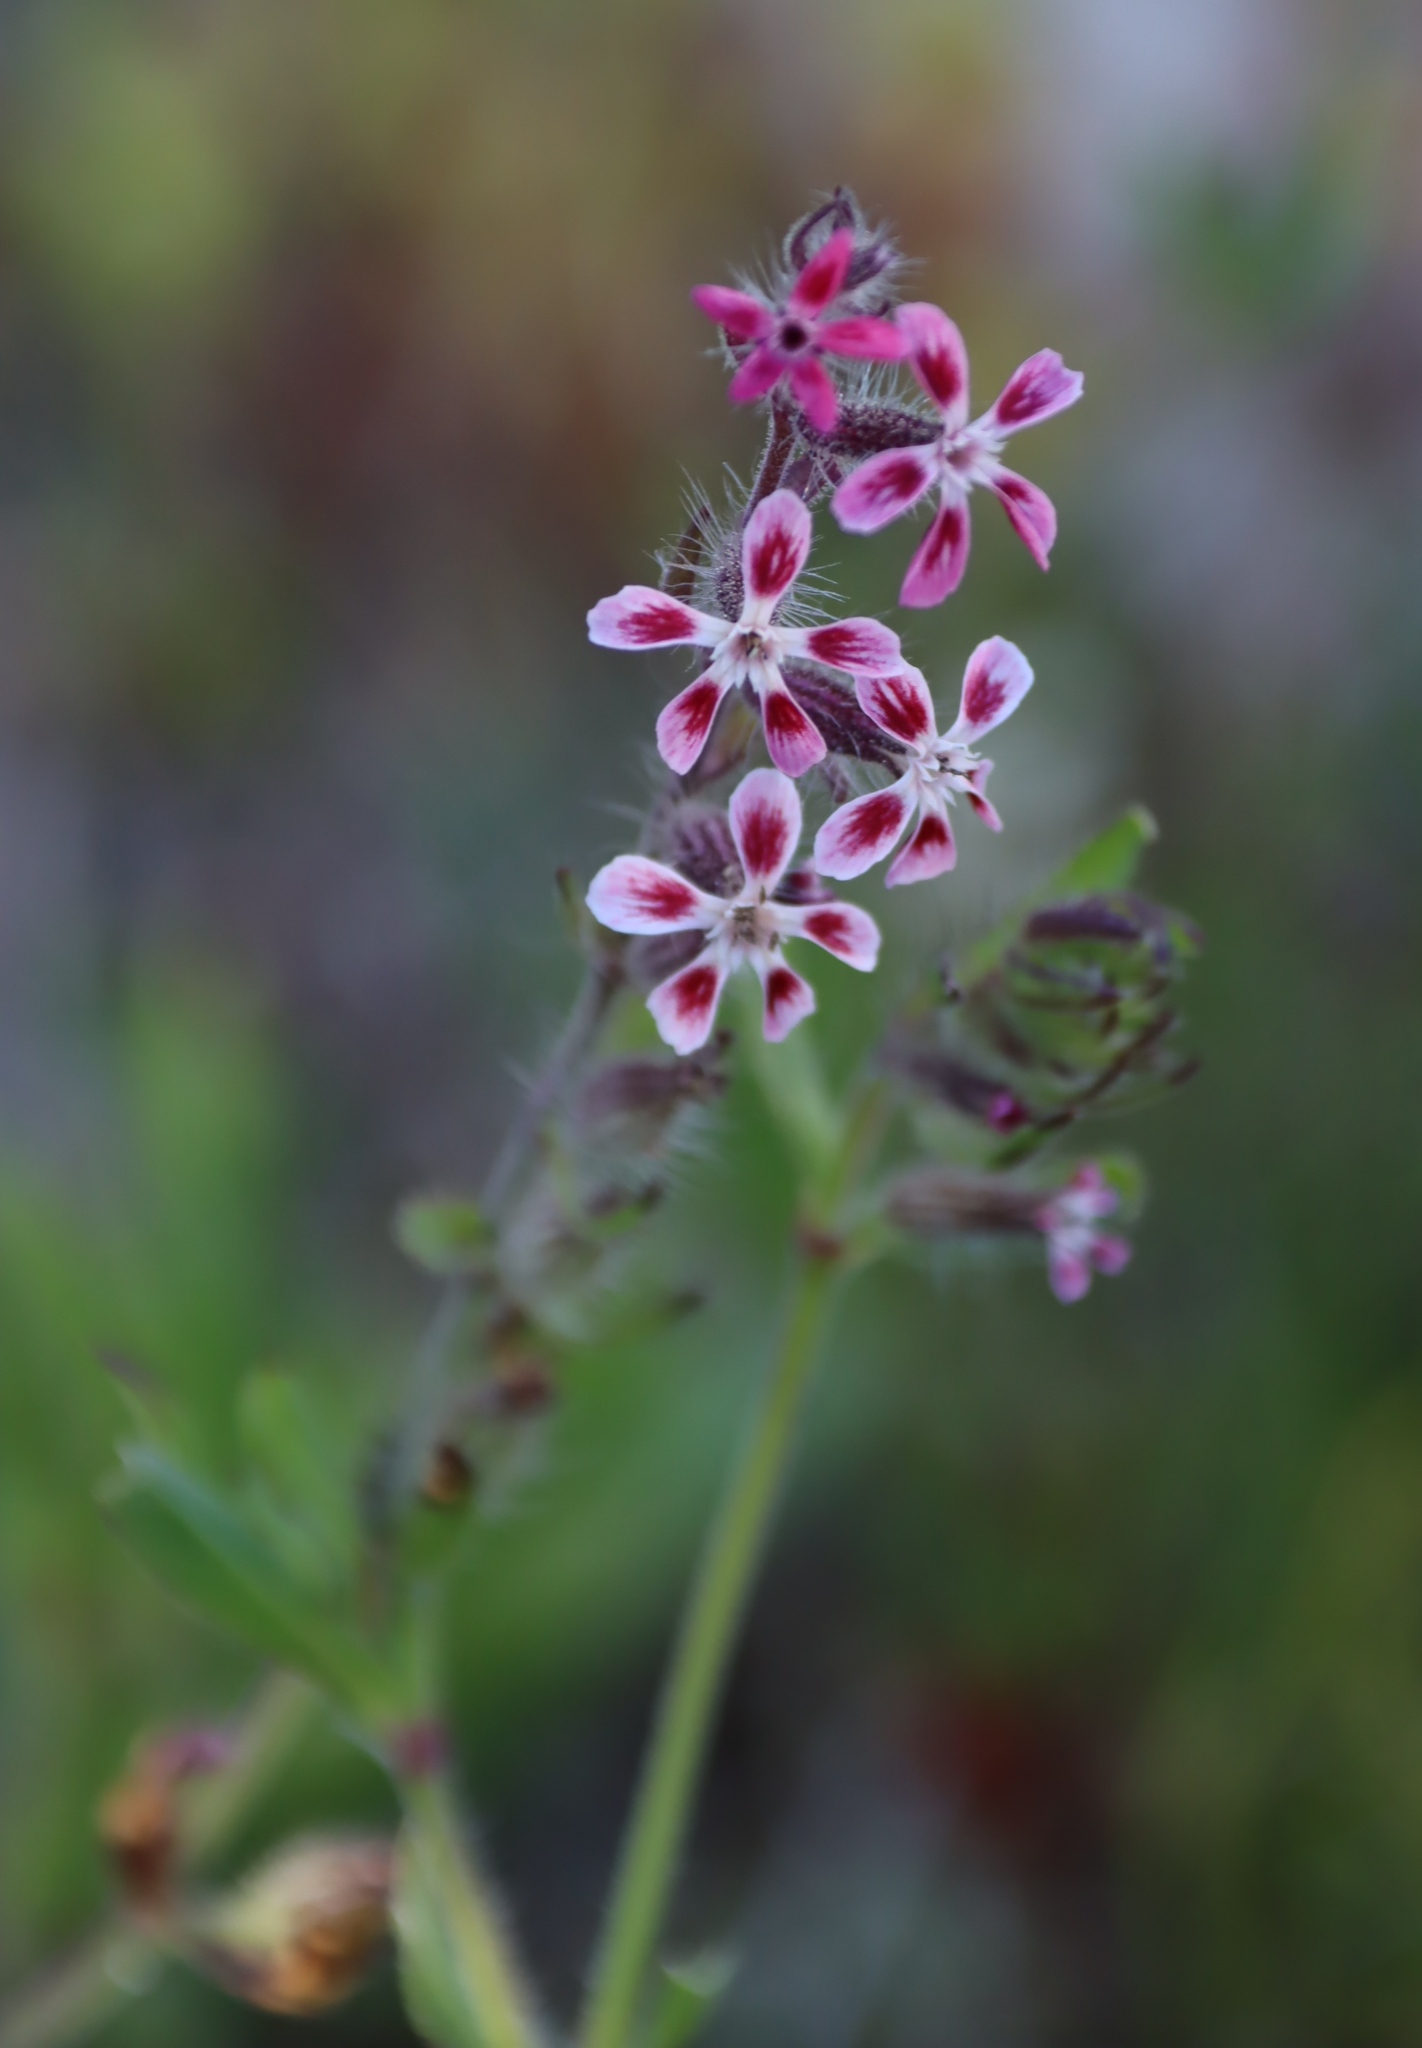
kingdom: Plantae
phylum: Tracheophyta
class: Magnoliopsida
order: Caryophyllales
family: Caryophyllaceae
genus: Silene
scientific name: Silene gallica
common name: Small-flowered catchfly
